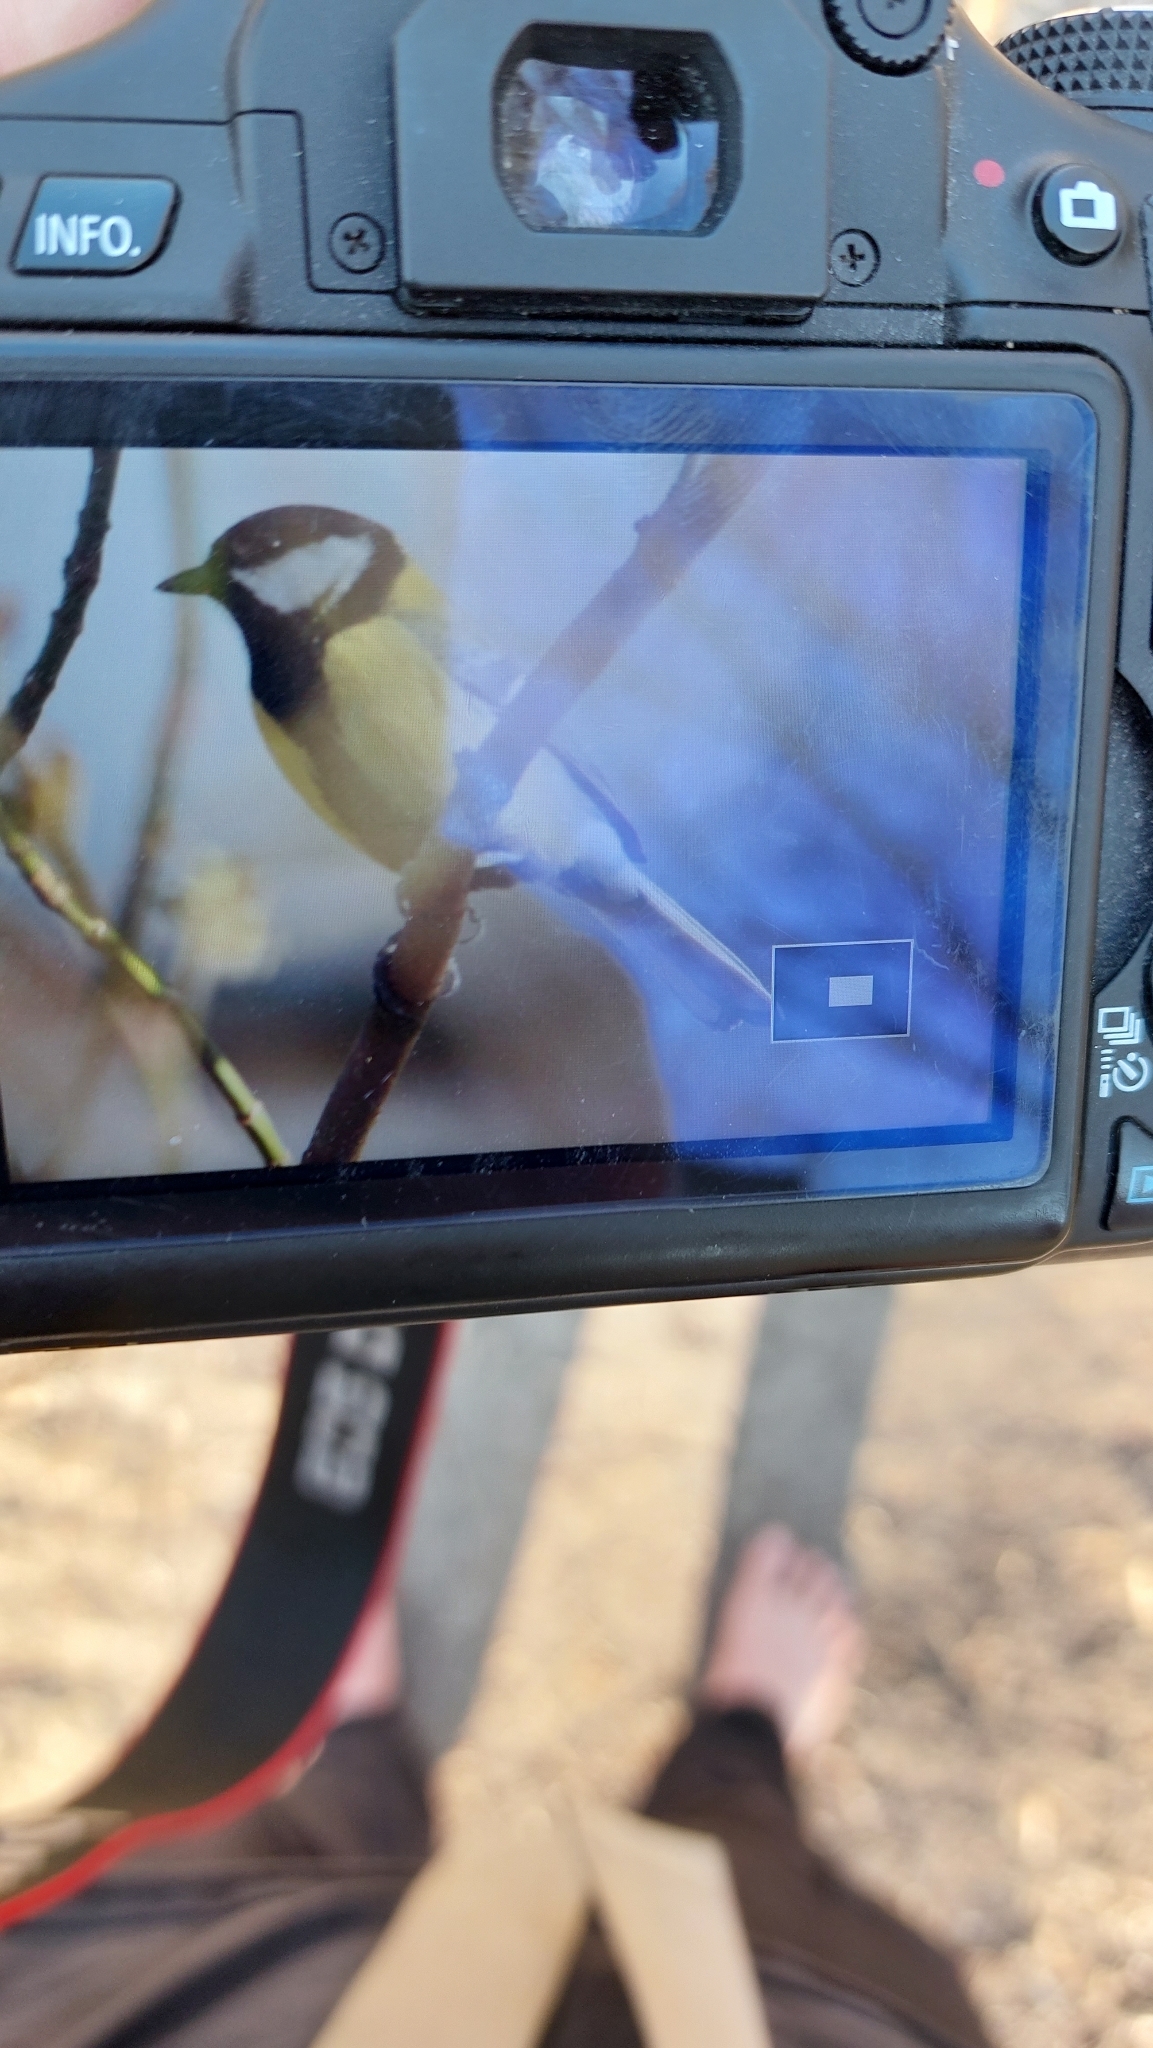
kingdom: Animalia
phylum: Chordata
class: Aves
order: Passeriformes
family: Paridae
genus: Parus
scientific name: Parus major
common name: Great tit
